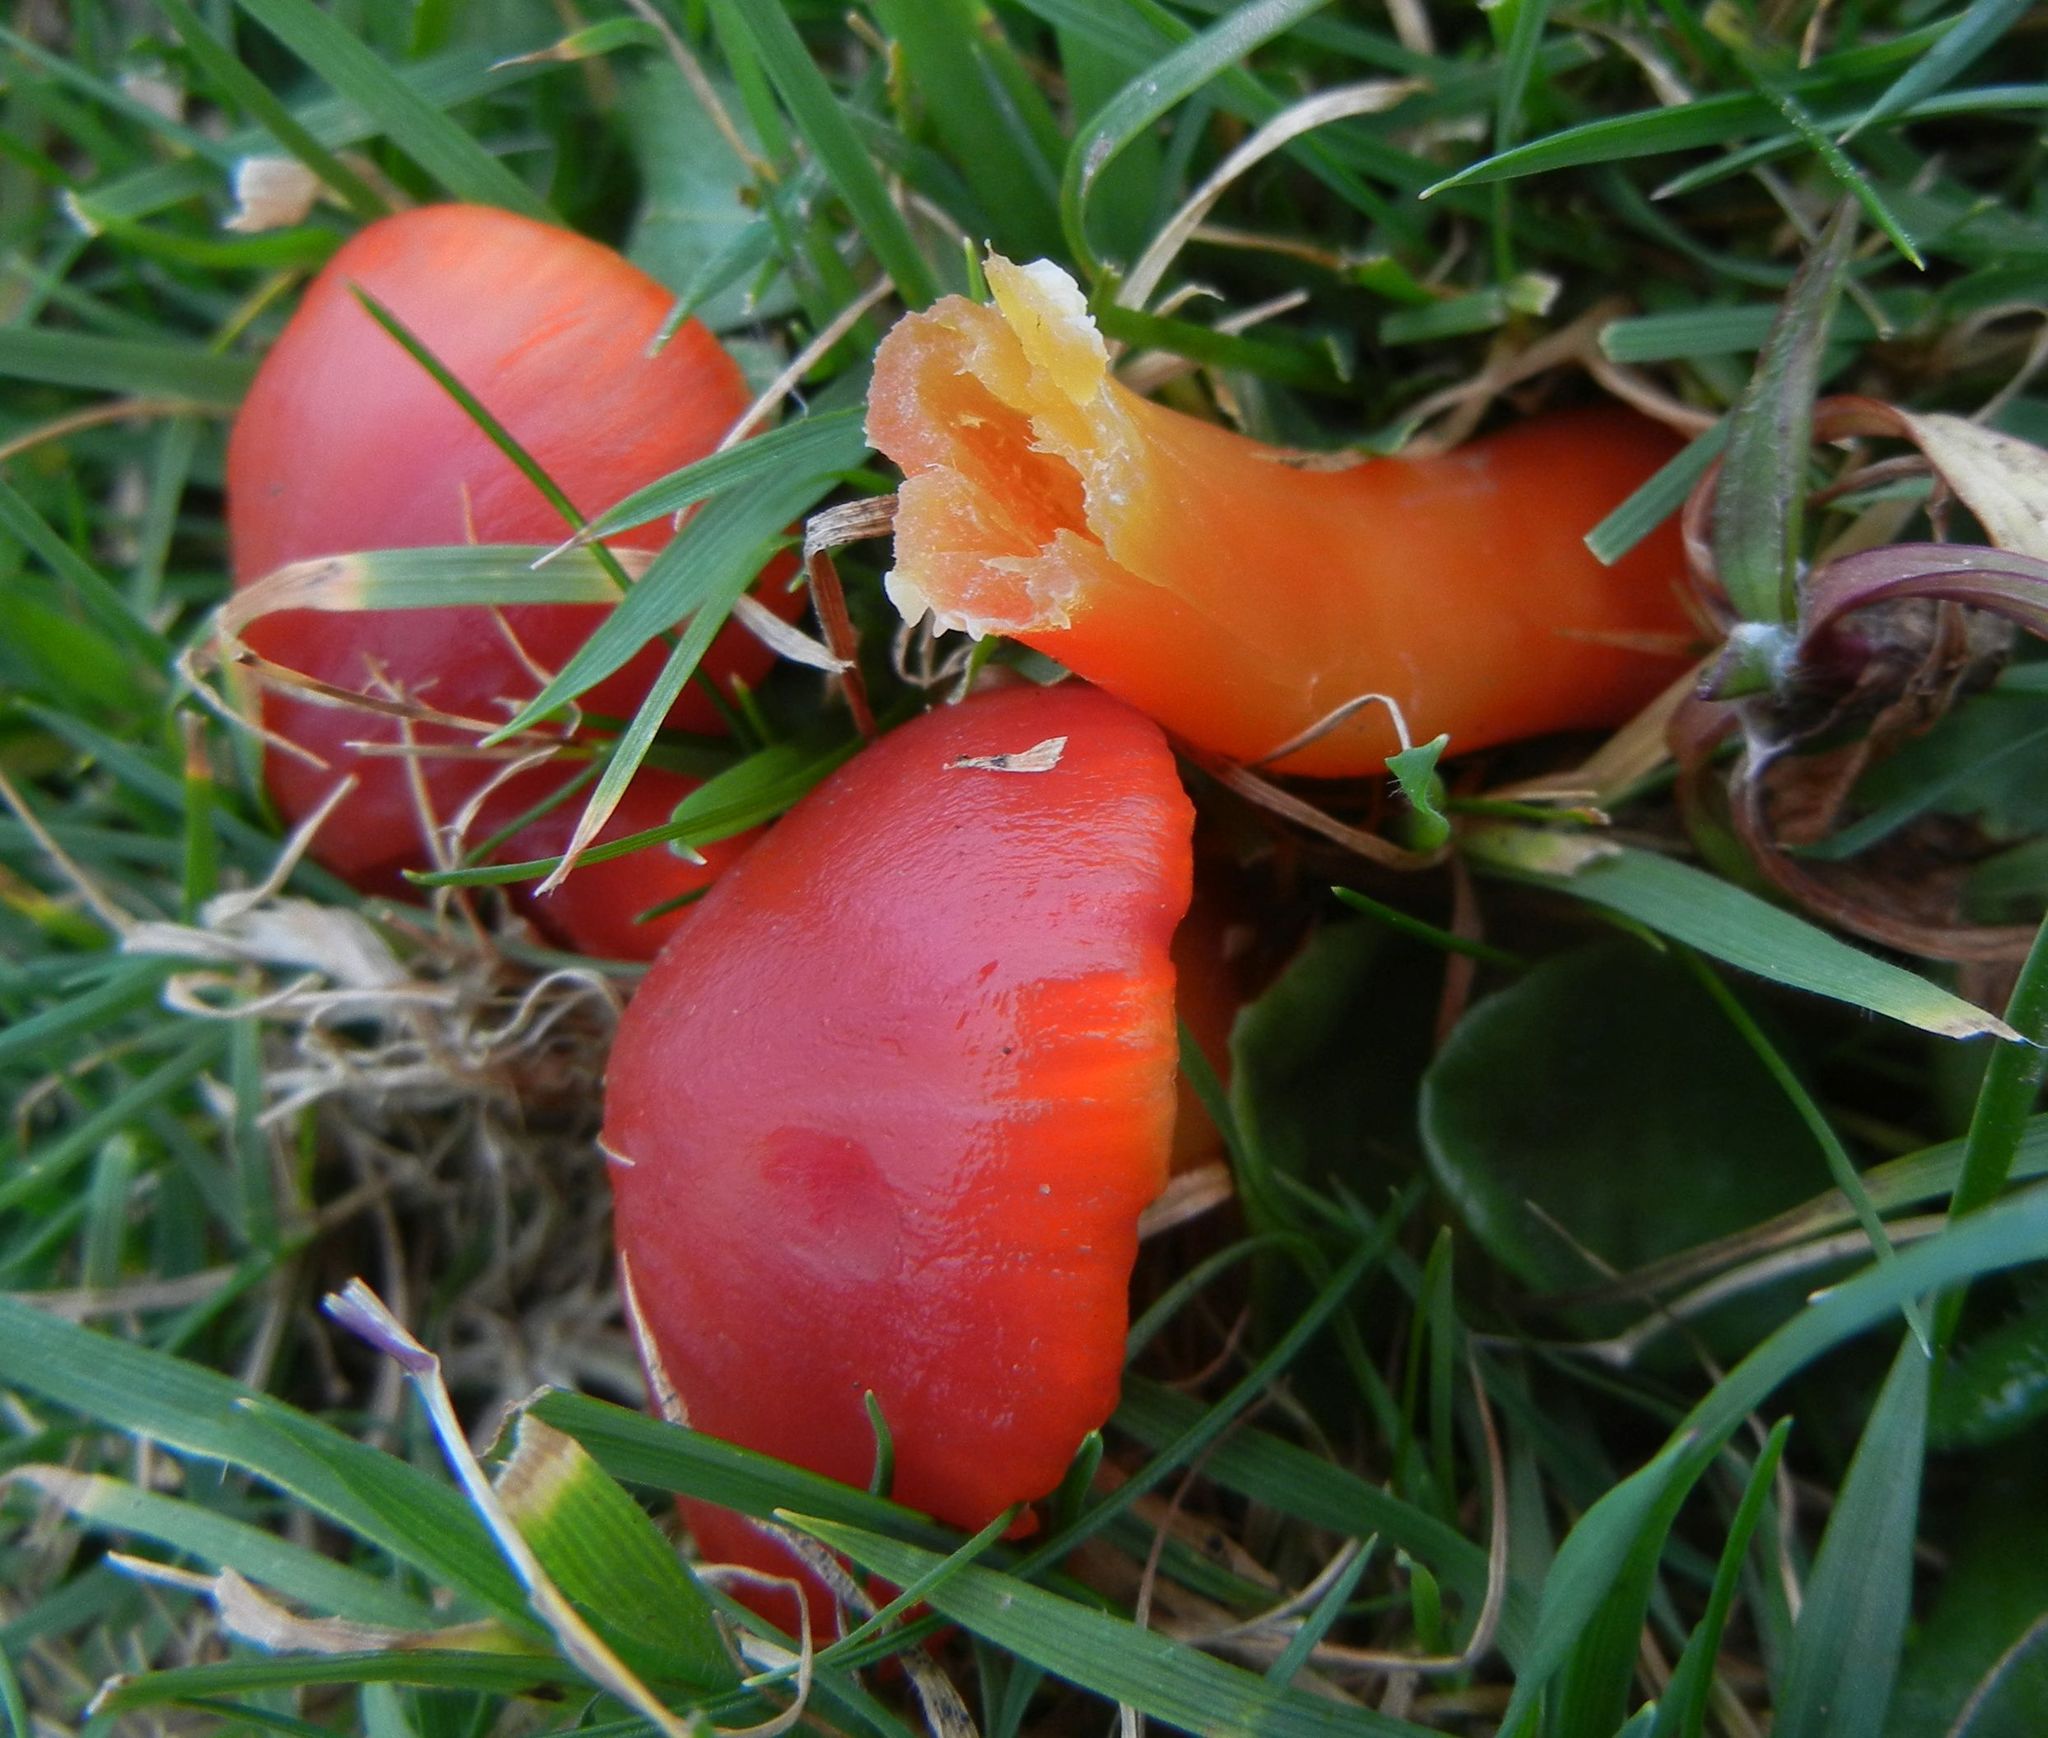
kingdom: Fungi
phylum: Basidiomycota
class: Agaricomycetes
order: Agaricales
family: Hygrophoraceae
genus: Hygrocybe
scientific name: Hygrocybe coccinea
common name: Scarlet hood
